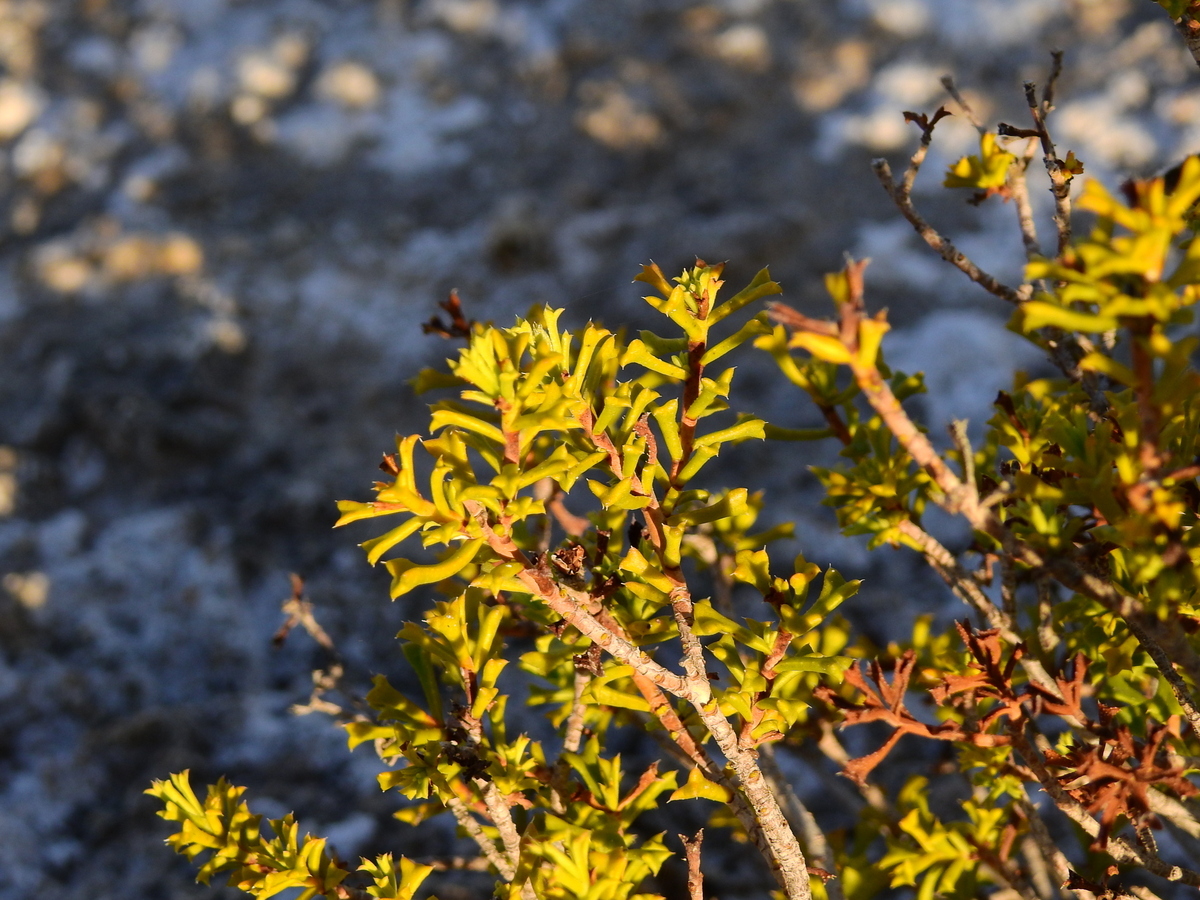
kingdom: Plantae
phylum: Tracheophyta
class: Magnoliopsida
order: Boraginales
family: Ehretiaceae
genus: Ehretia
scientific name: Ehretia cortesia
